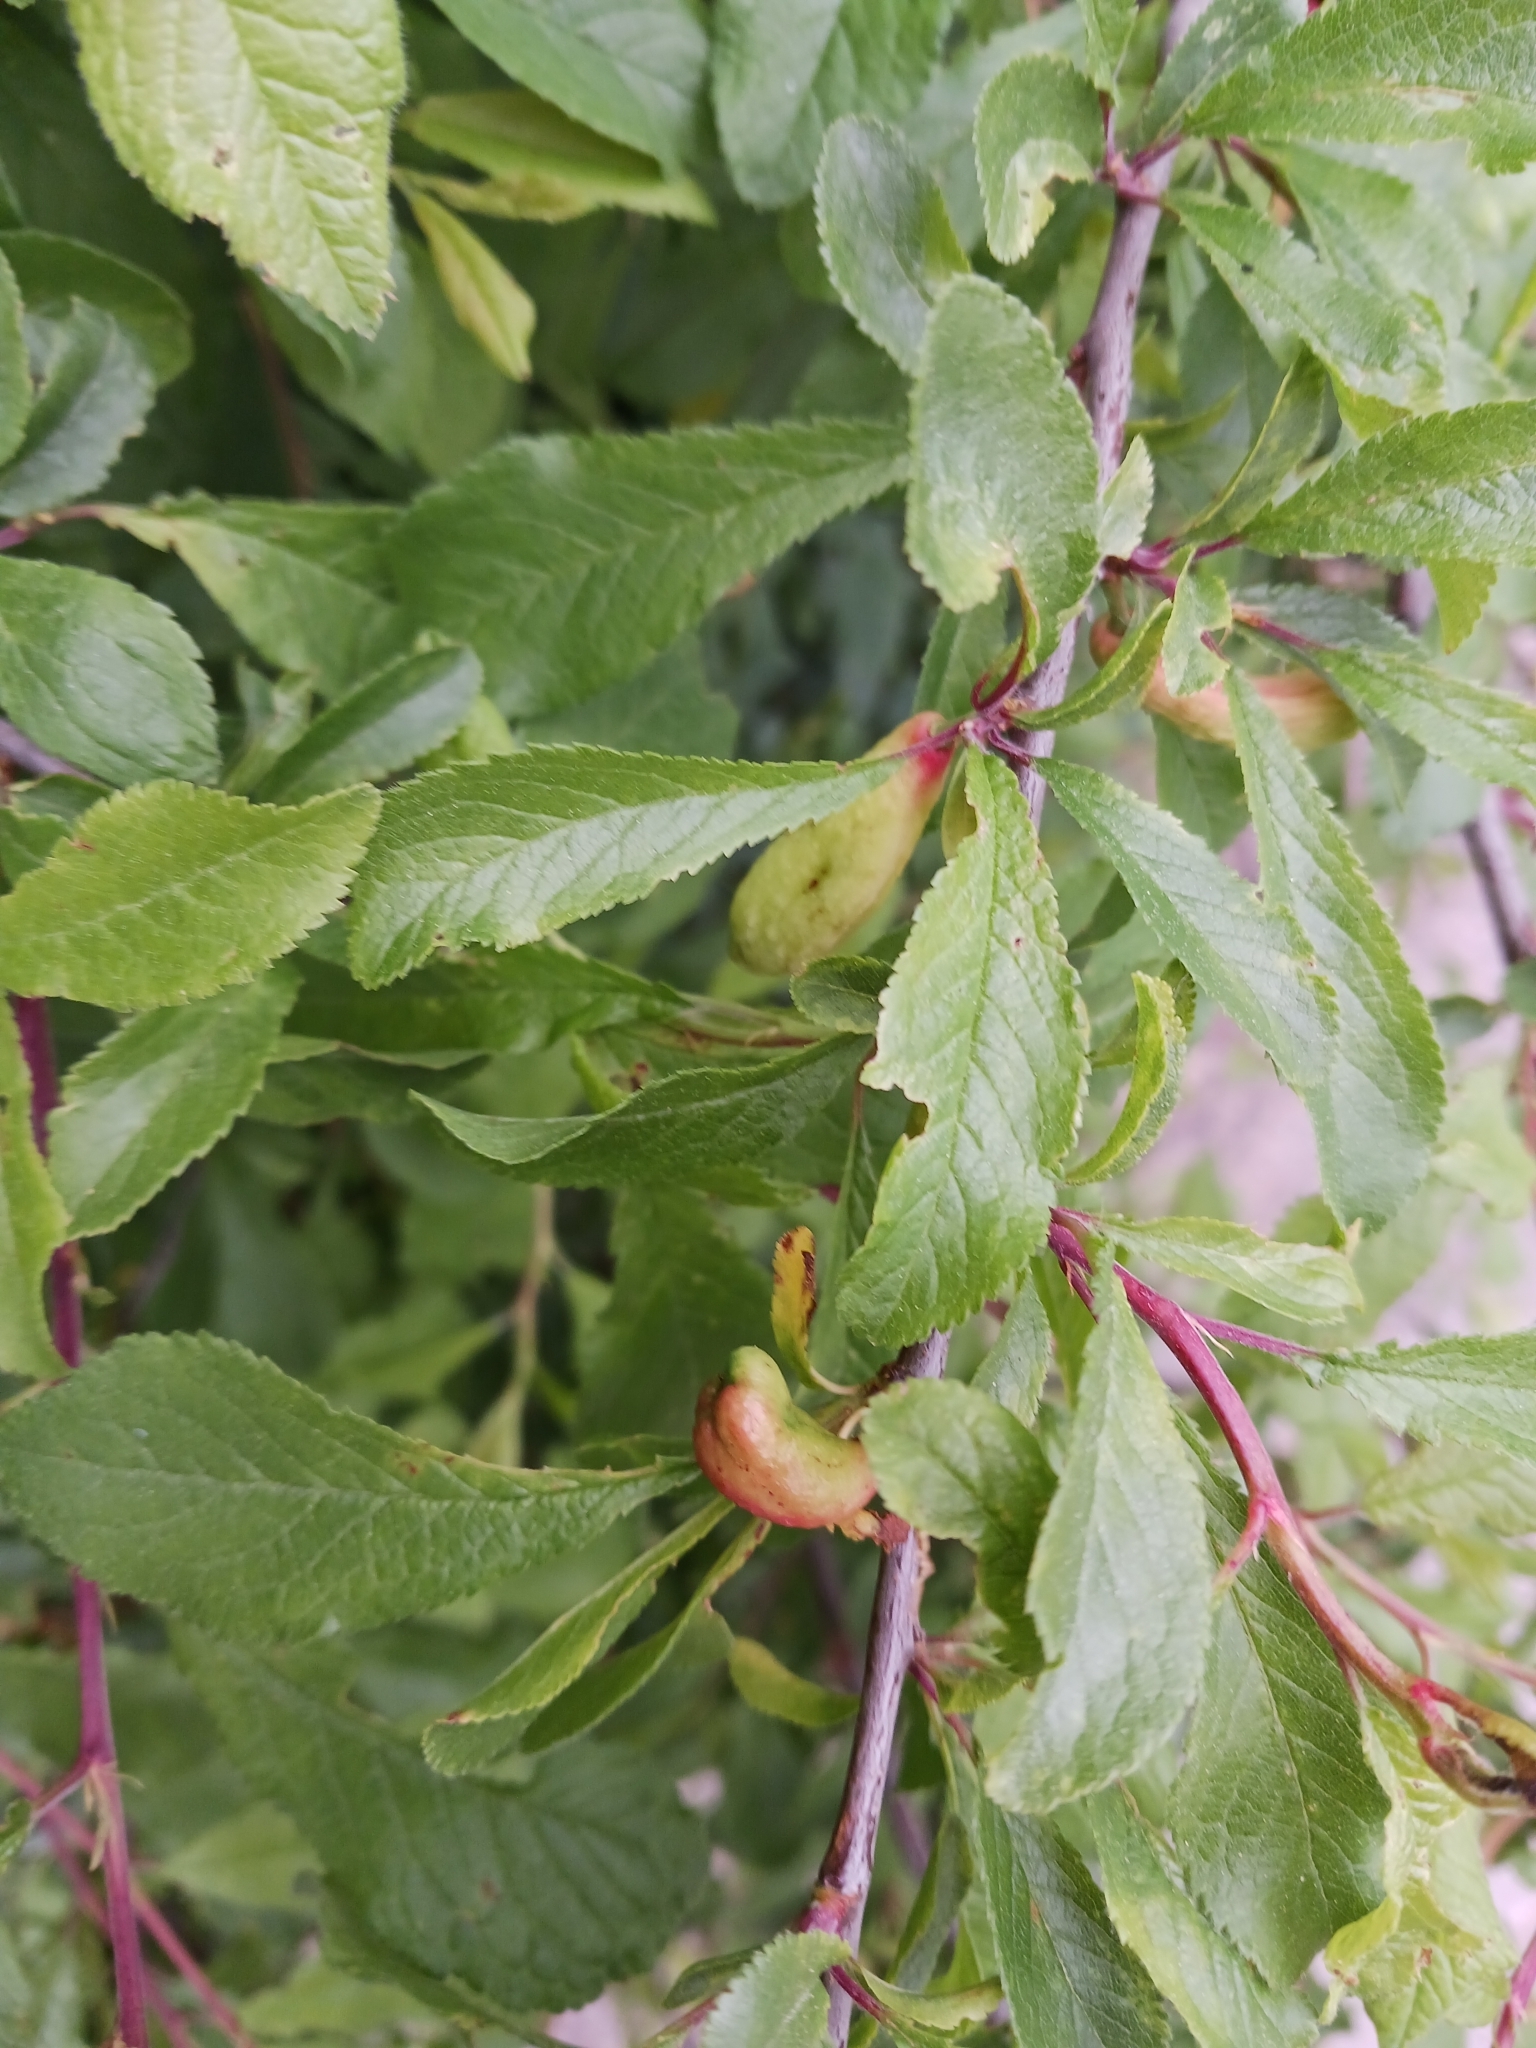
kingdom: Fungi
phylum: Ascomycota
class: Taphrinomycetes
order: Taphrinales
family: Taphrinaceae
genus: Taphrina
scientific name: Taphrina pruni
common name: Pocket plum
